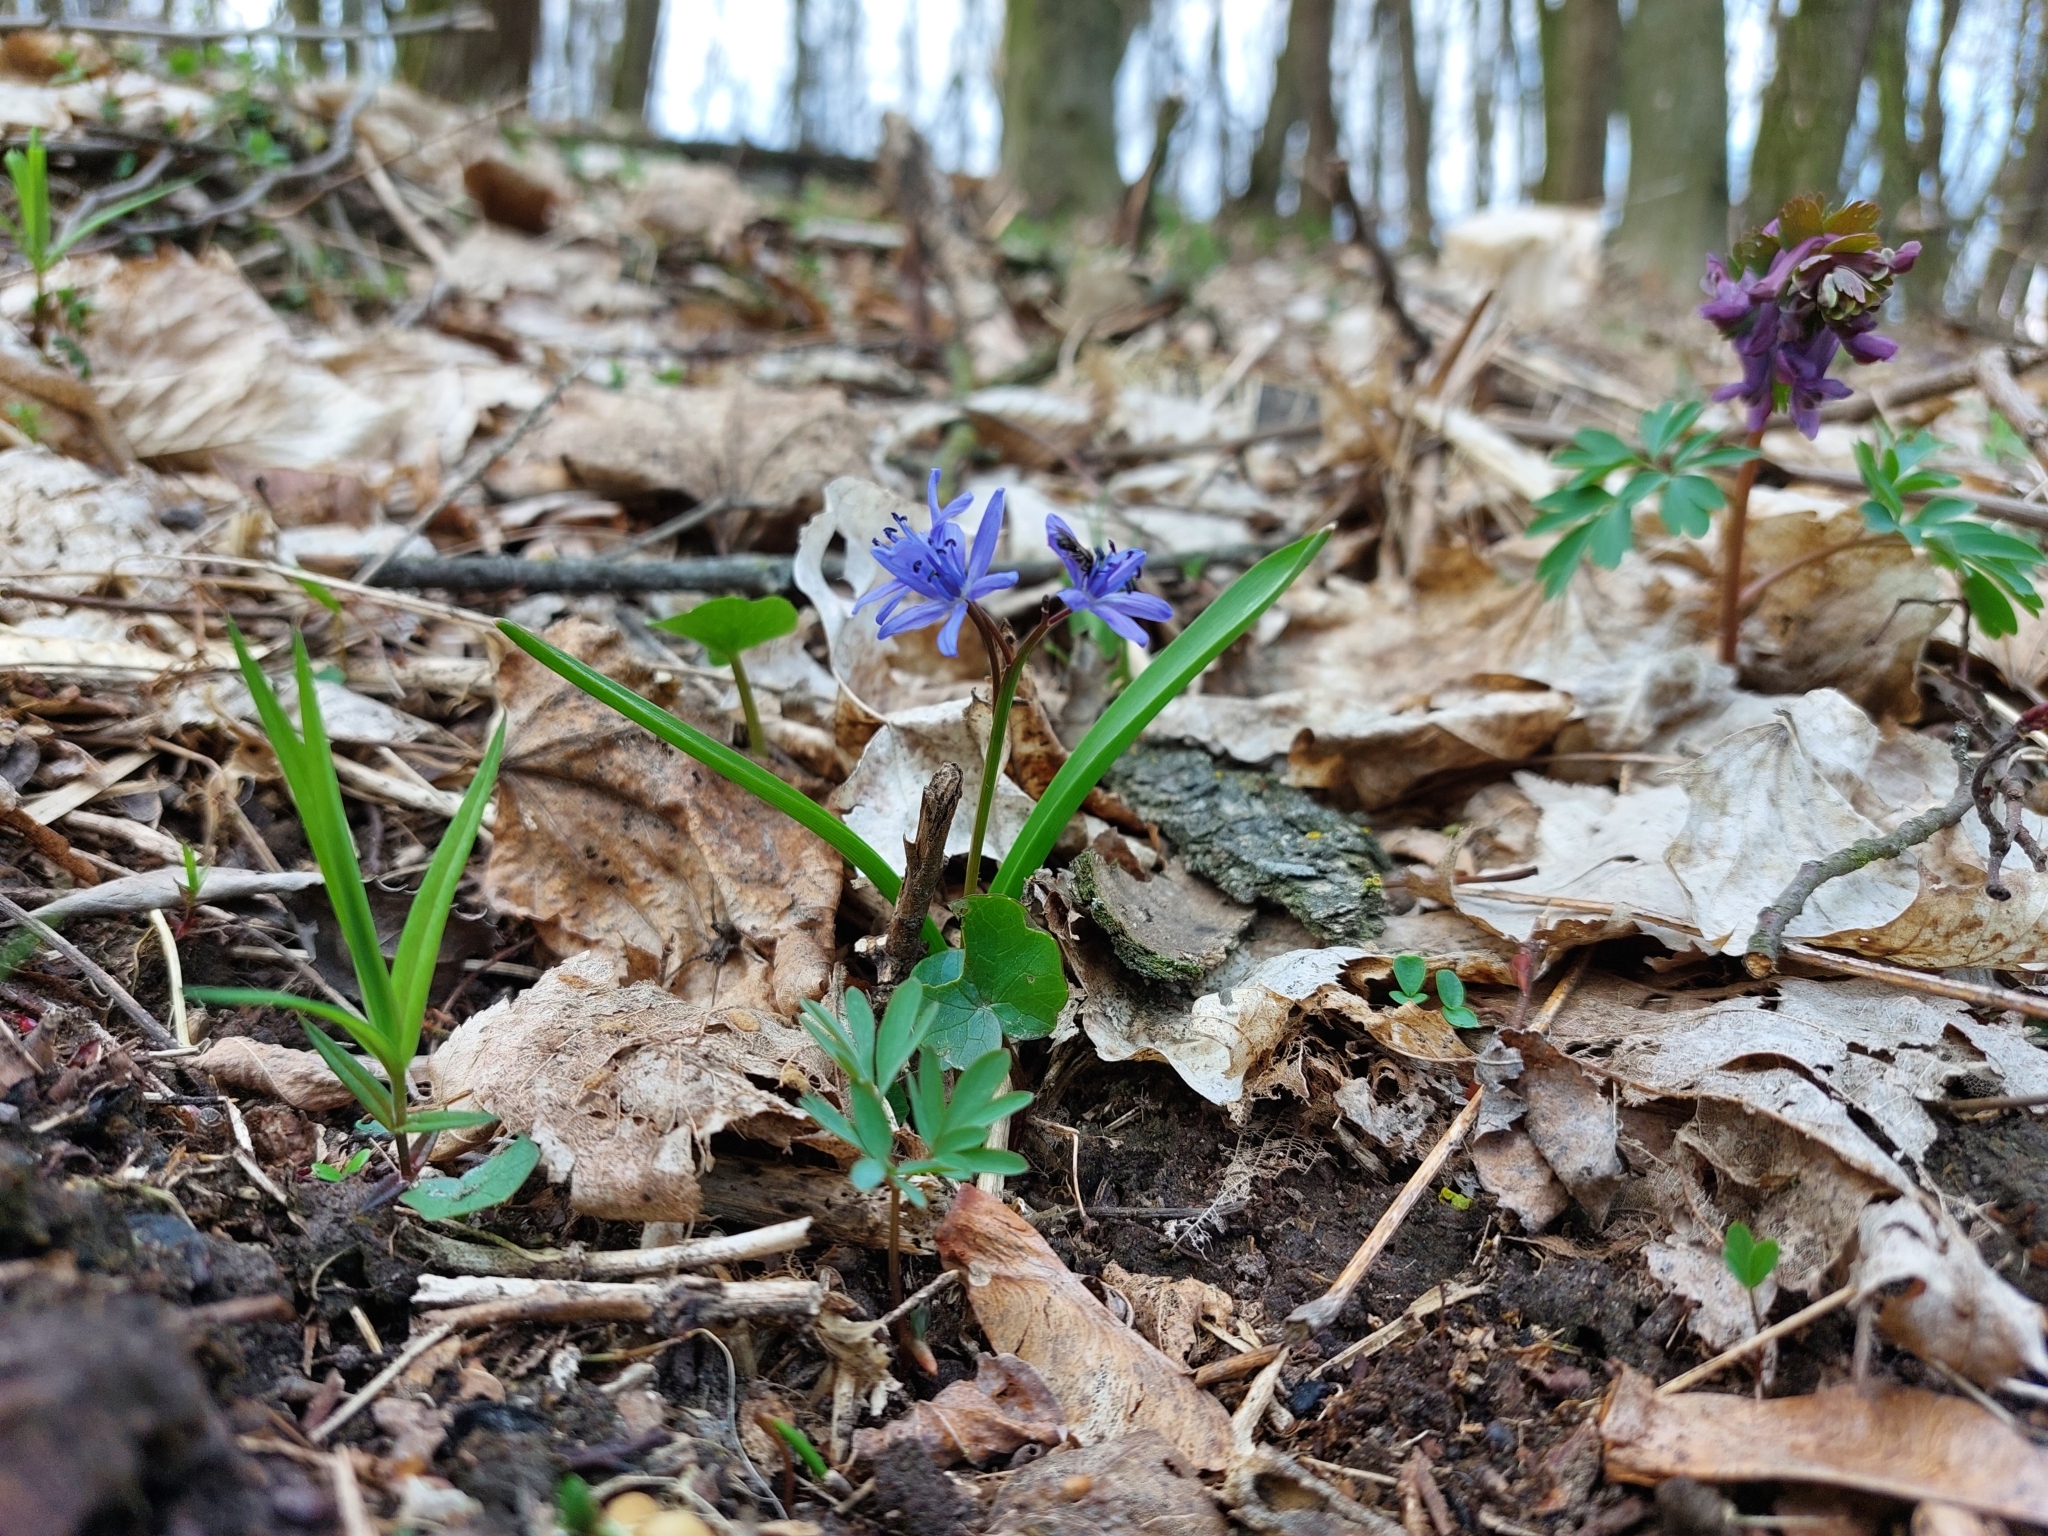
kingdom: Plantae
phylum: Tracheophyta
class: Liliopsida
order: Asparagales
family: Asparagaceae
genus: Scilla
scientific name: Scilla bifolia
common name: Alpine squill
